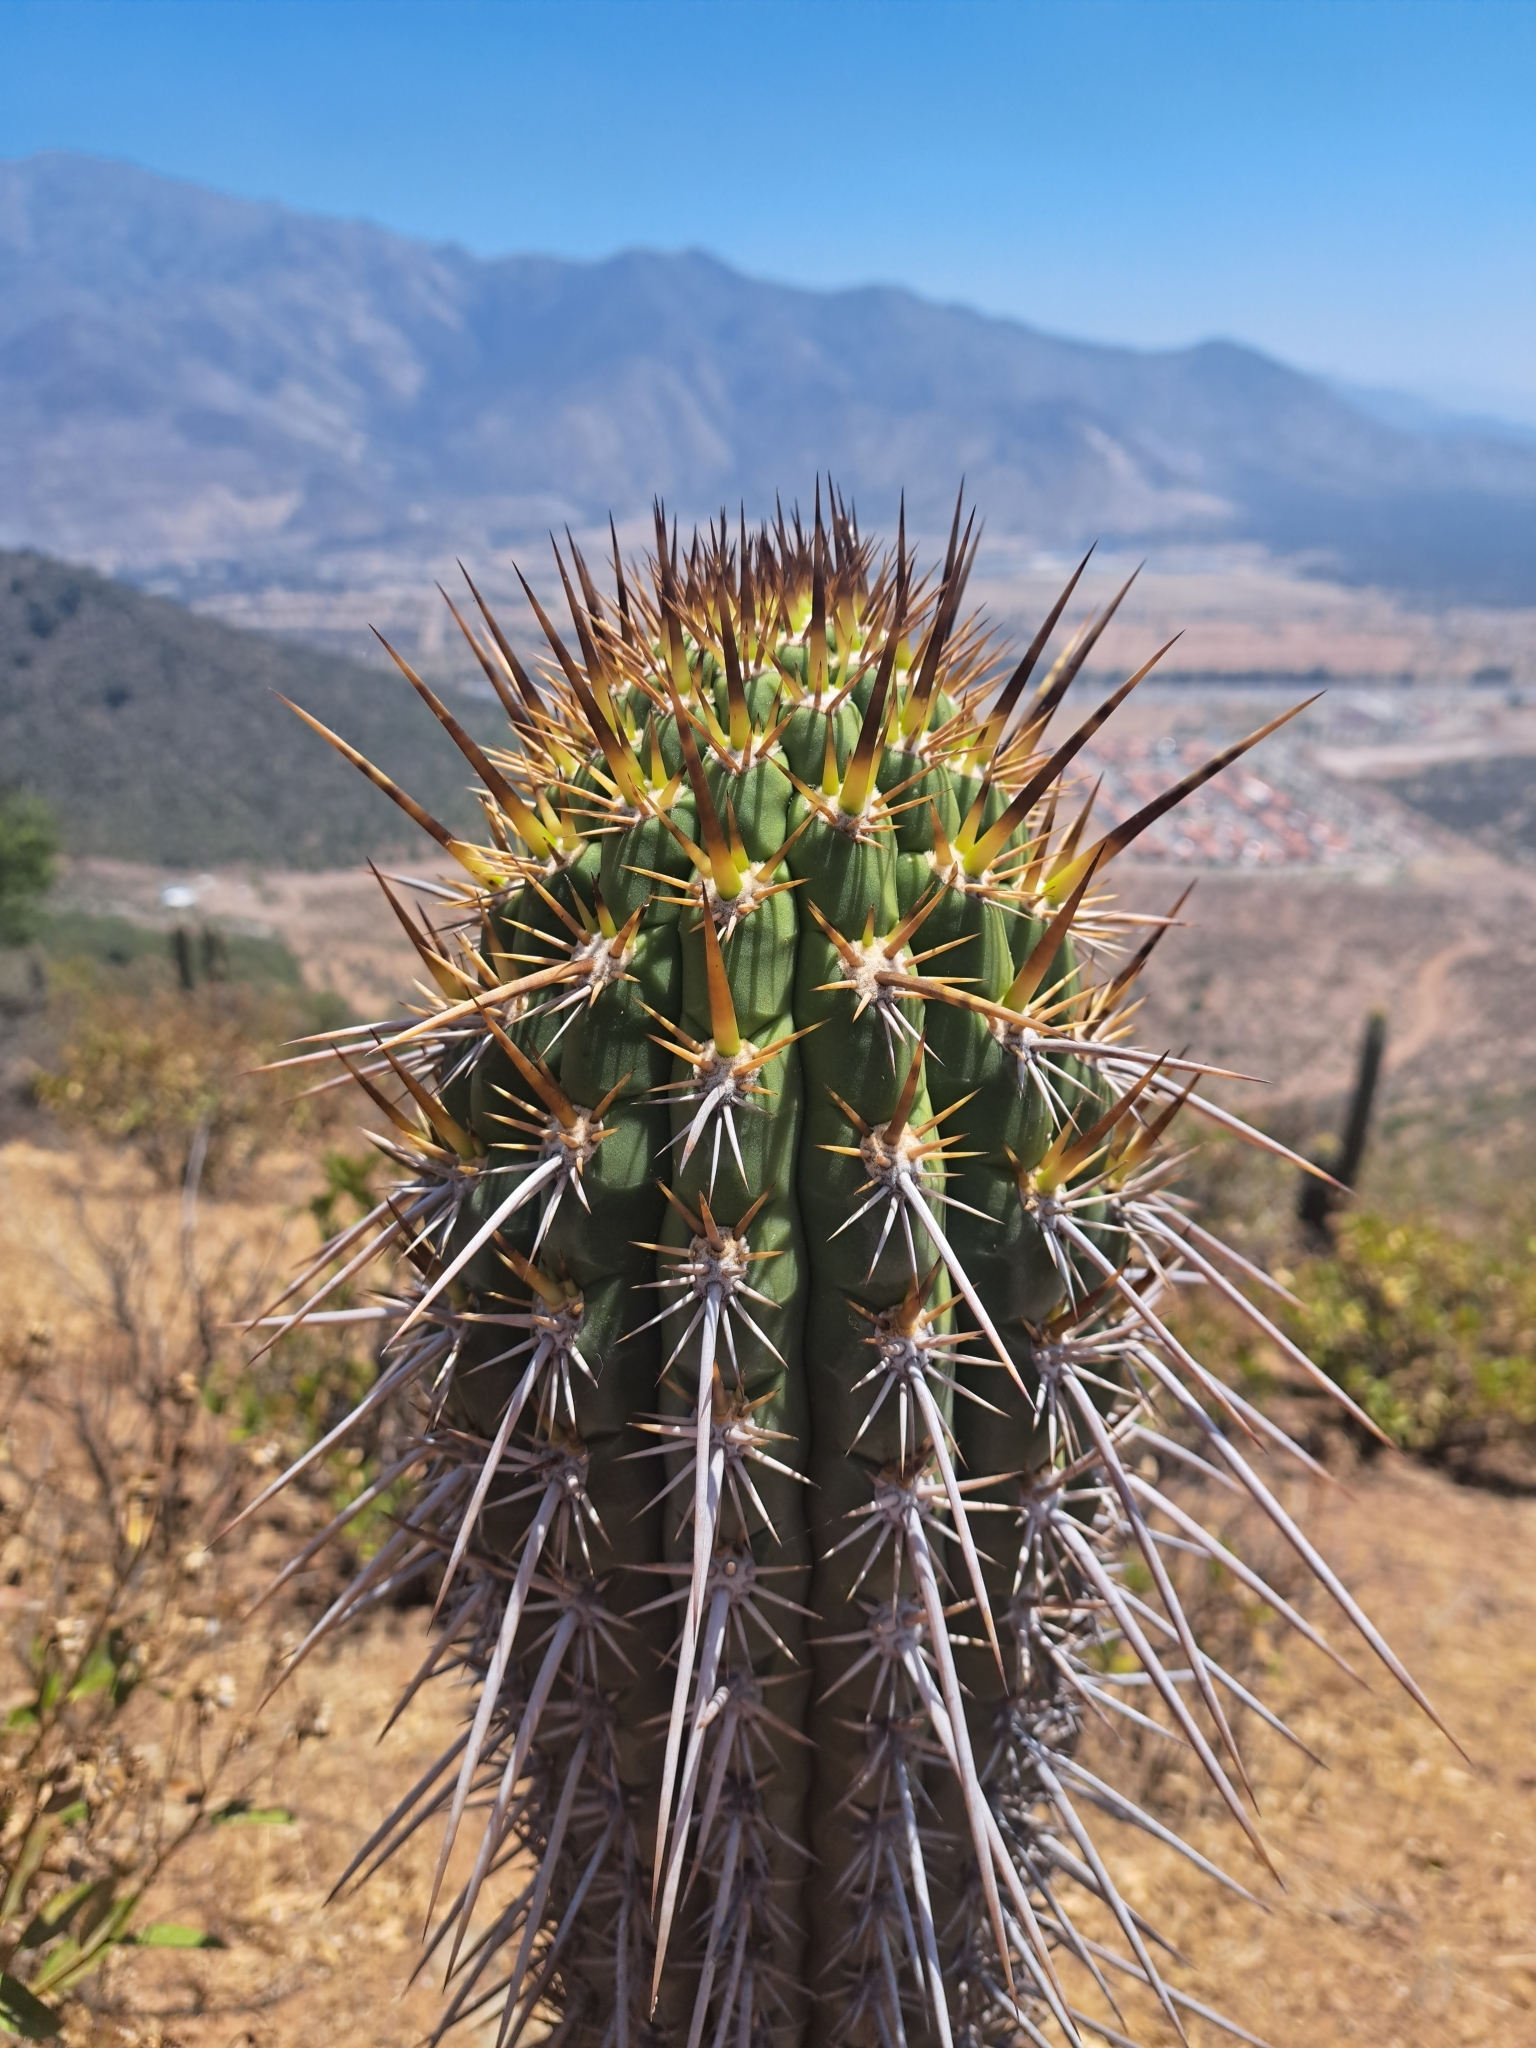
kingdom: Plantae
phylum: Tracheophyta
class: Magnoliopsida
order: Caryophyllales
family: Cactaceae
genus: Leucostele
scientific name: Leucostele chiloensis
